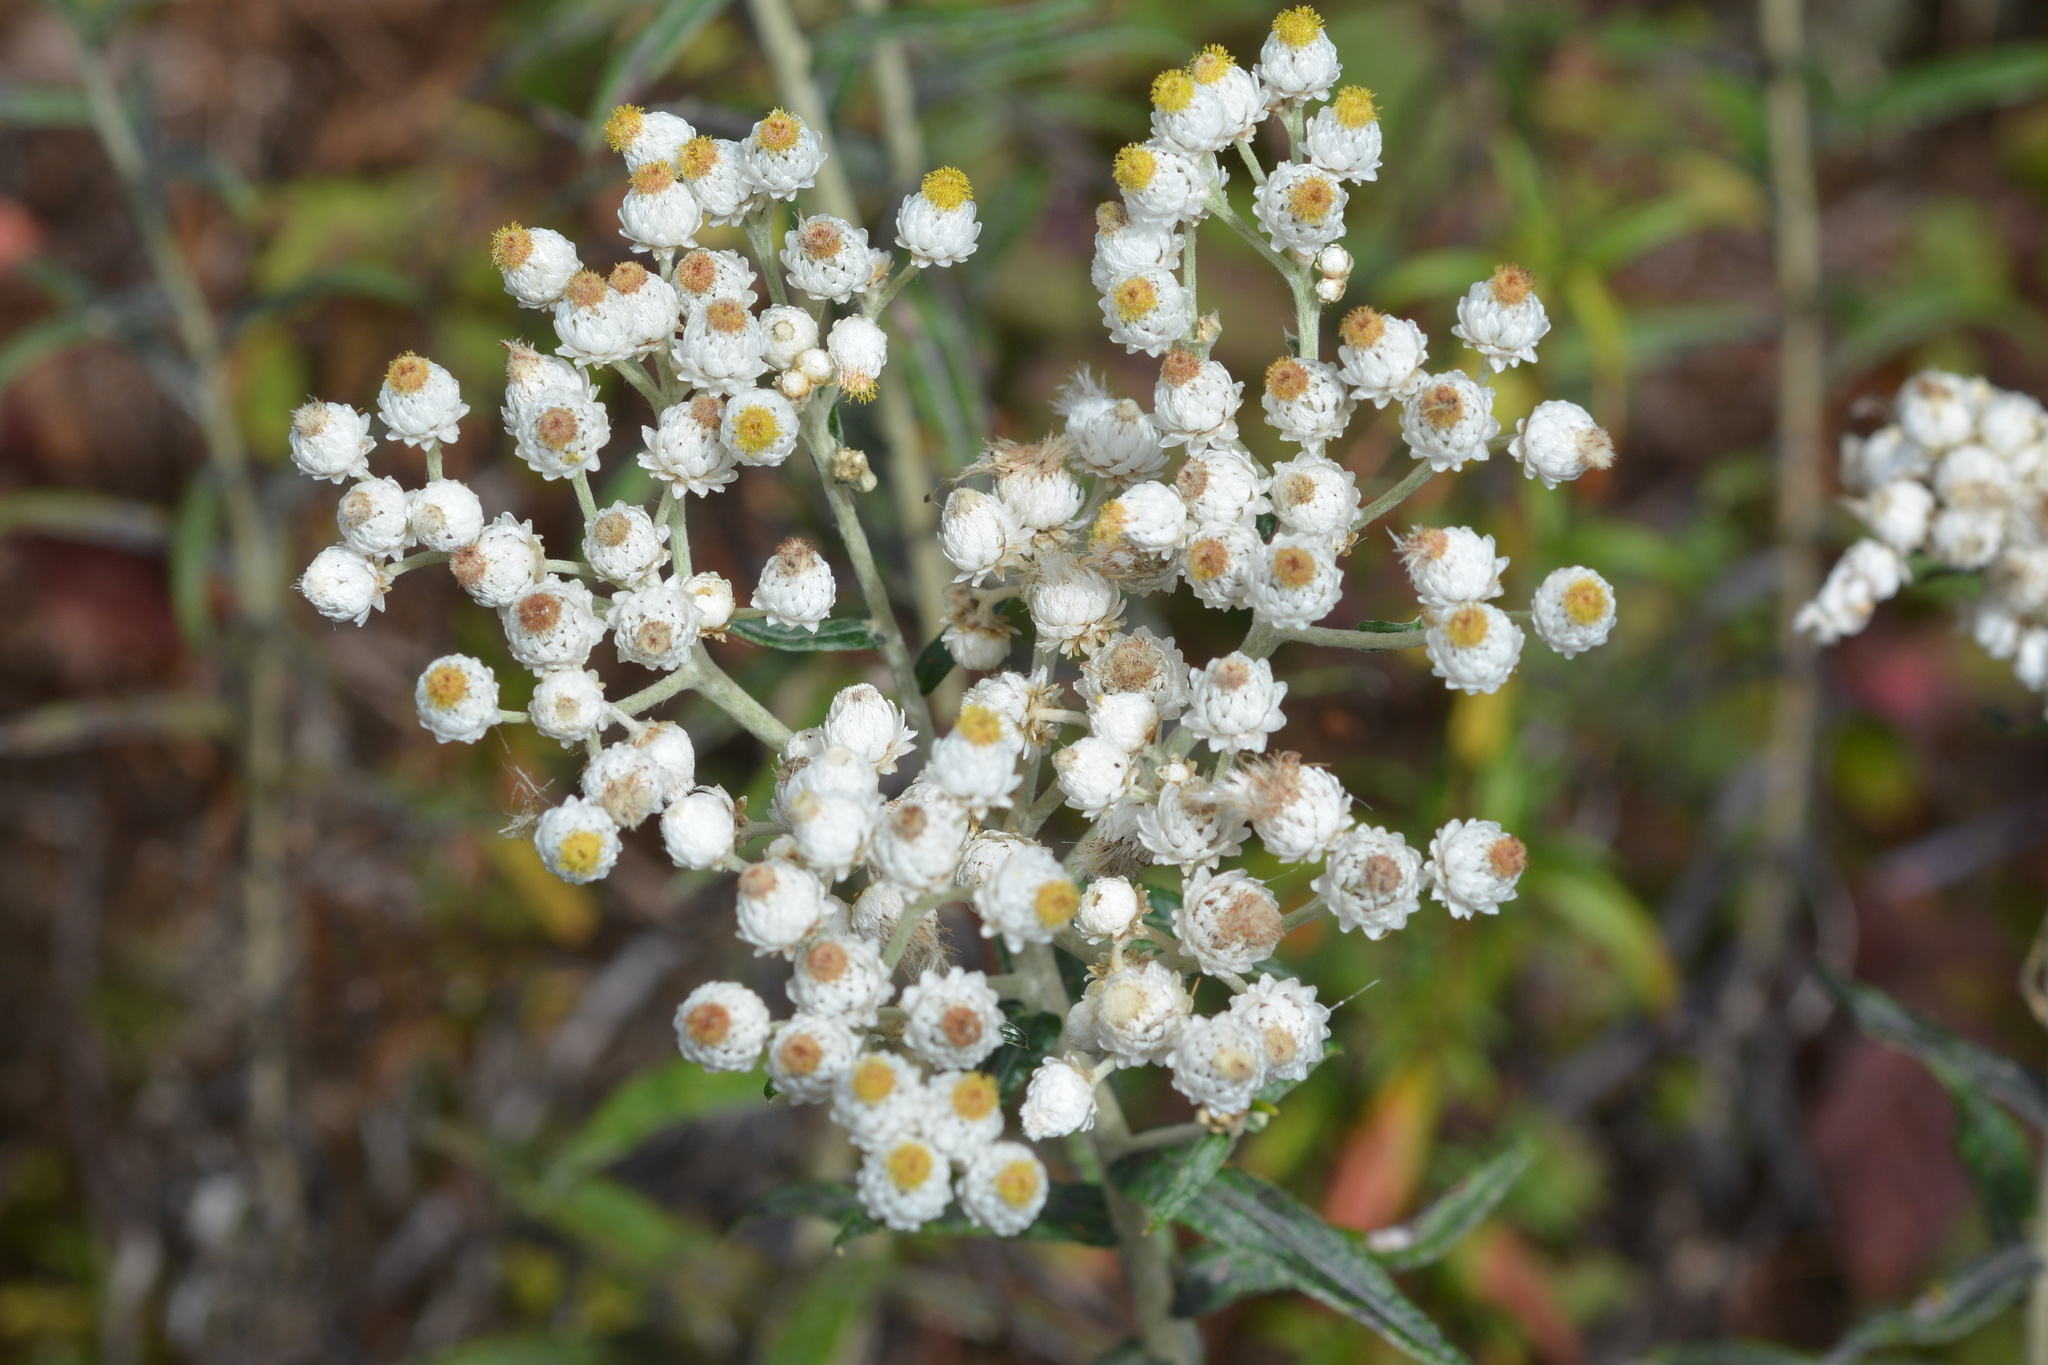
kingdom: Plantae
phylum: Tracheophyta
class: Magnoliopsida
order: Asterales
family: Asteraceae
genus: Anaphalis
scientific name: Anaphalis margaritacea
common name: Pearly everlasting
